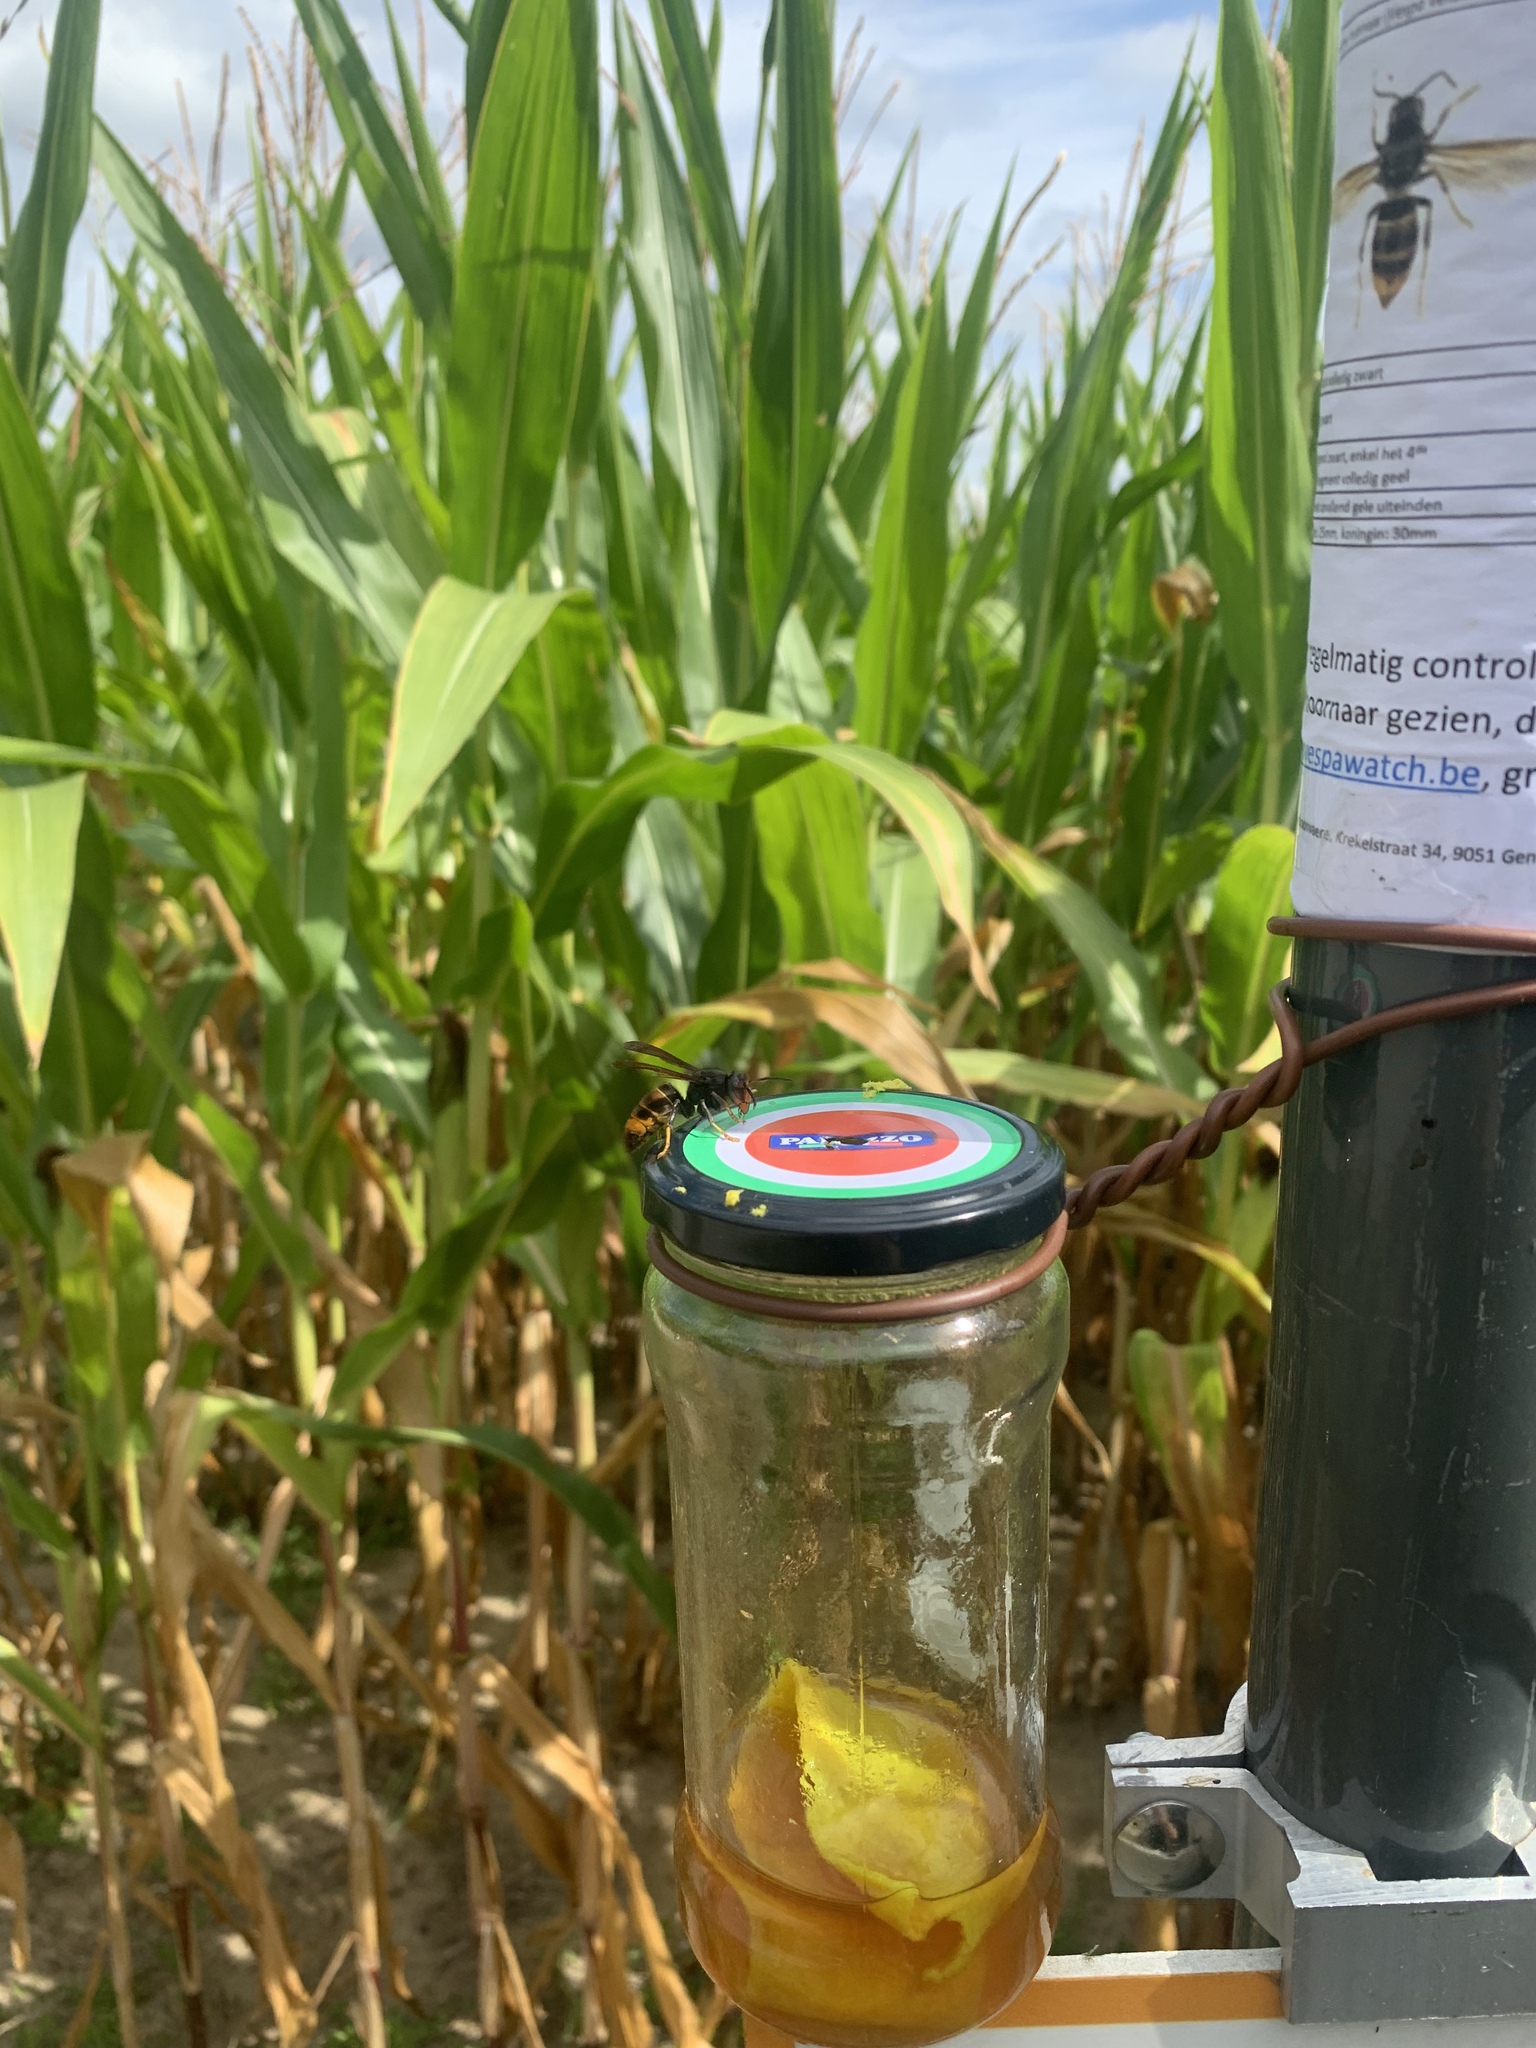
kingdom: Animalia
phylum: Arthropoda
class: Insecta
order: Hymenoptera
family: Vespidae
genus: Vespa
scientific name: Vespa velutina
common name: Asian hornet
